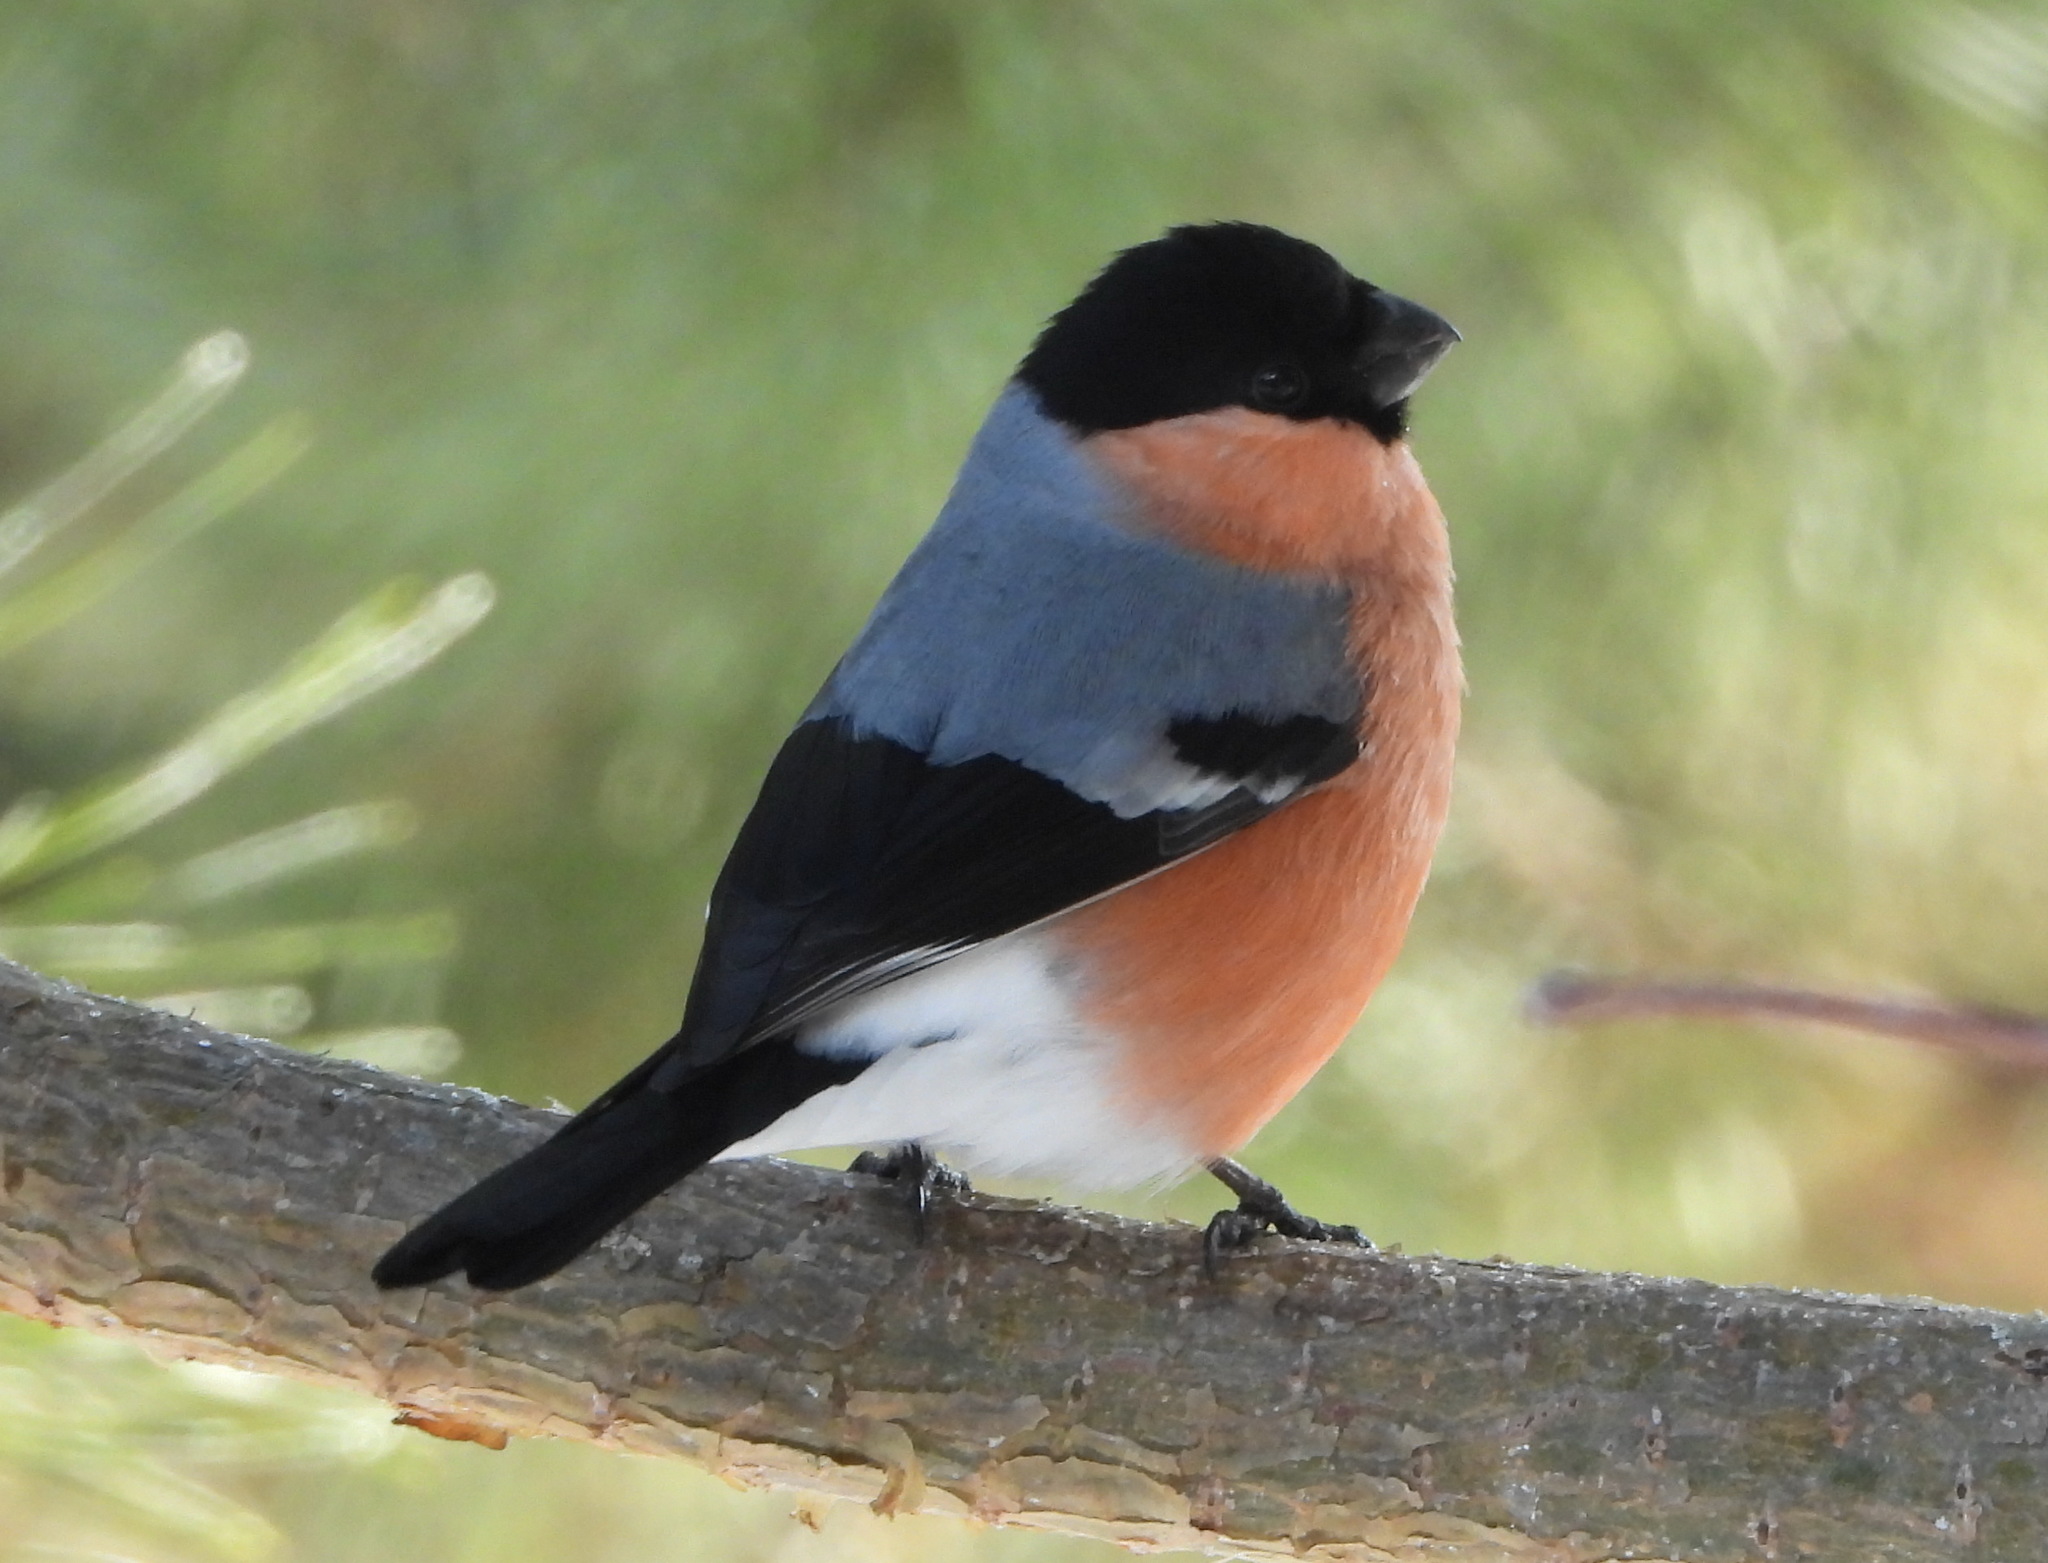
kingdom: Animalia
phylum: Chordata
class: Aves
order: Passeriformes
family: Fringillidae
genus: Pyrrhula
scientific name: Pyrrhula pyrrhula
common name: Eurasian bullfinch
